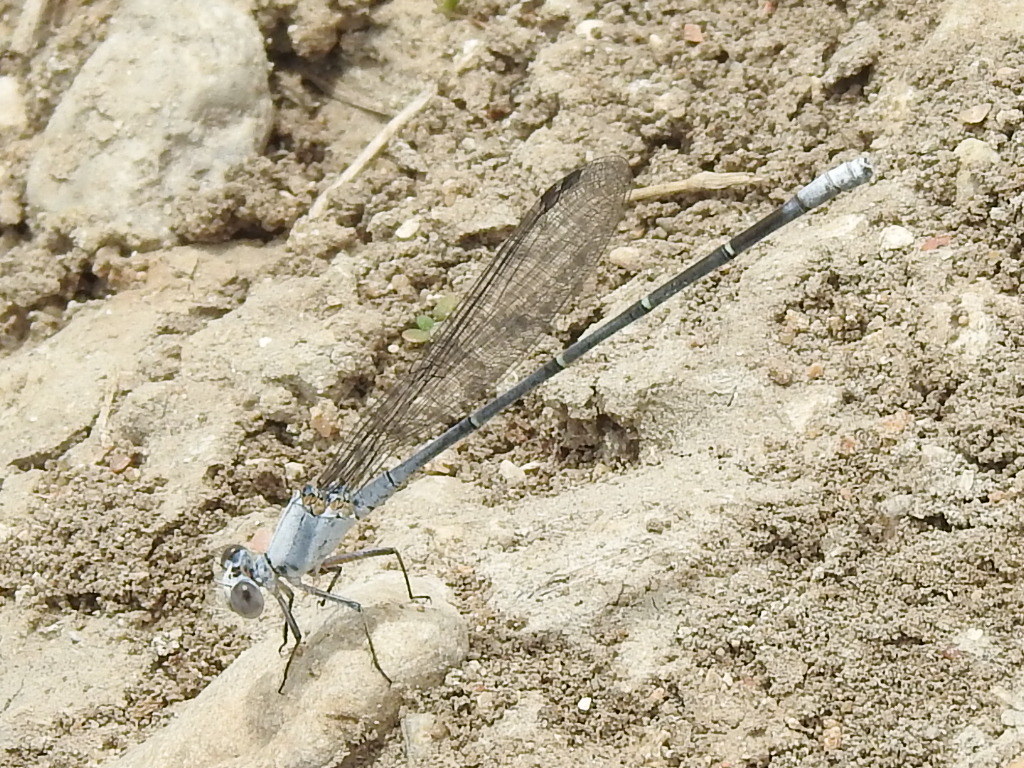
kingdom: Animalia
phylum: Arthropoda
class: Insecta
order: Odonata
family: Coenagrionidae
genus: Argia
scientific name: Argia moesta
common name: Powdered dancer
